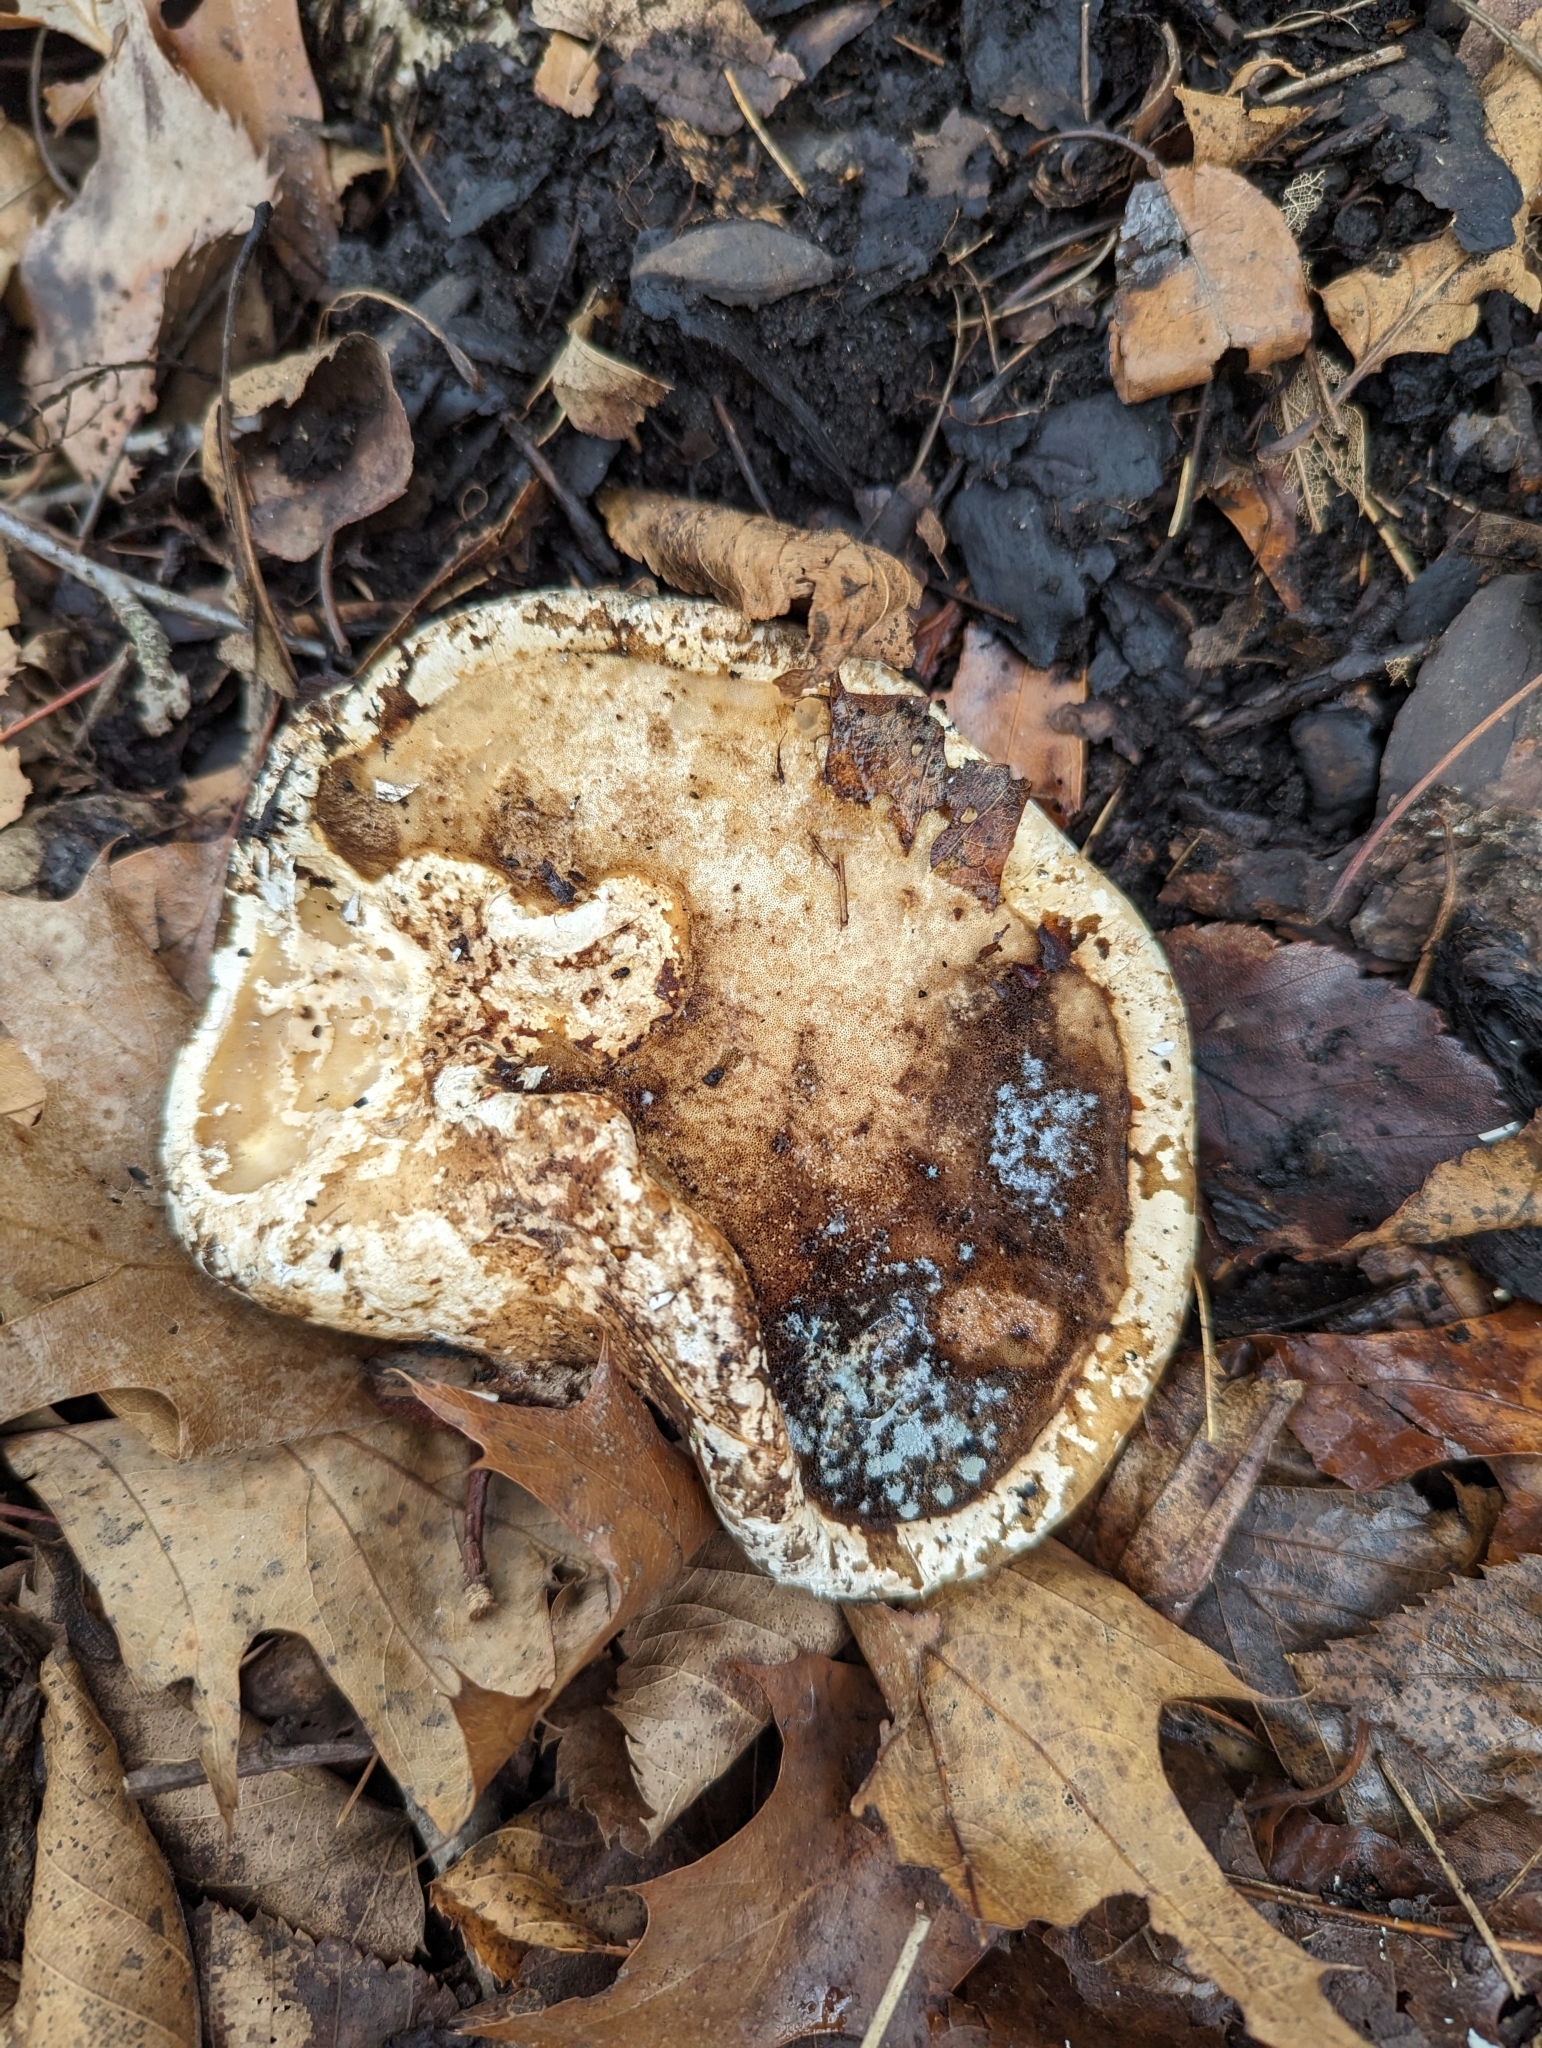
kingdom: Fungi
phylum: Basidiomycota
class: Agaricomycetes
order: Polyporales
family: Fomitopsidaceae
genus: Fomitopsis
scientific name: Fomitopsis betulina
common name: Birch polypore
